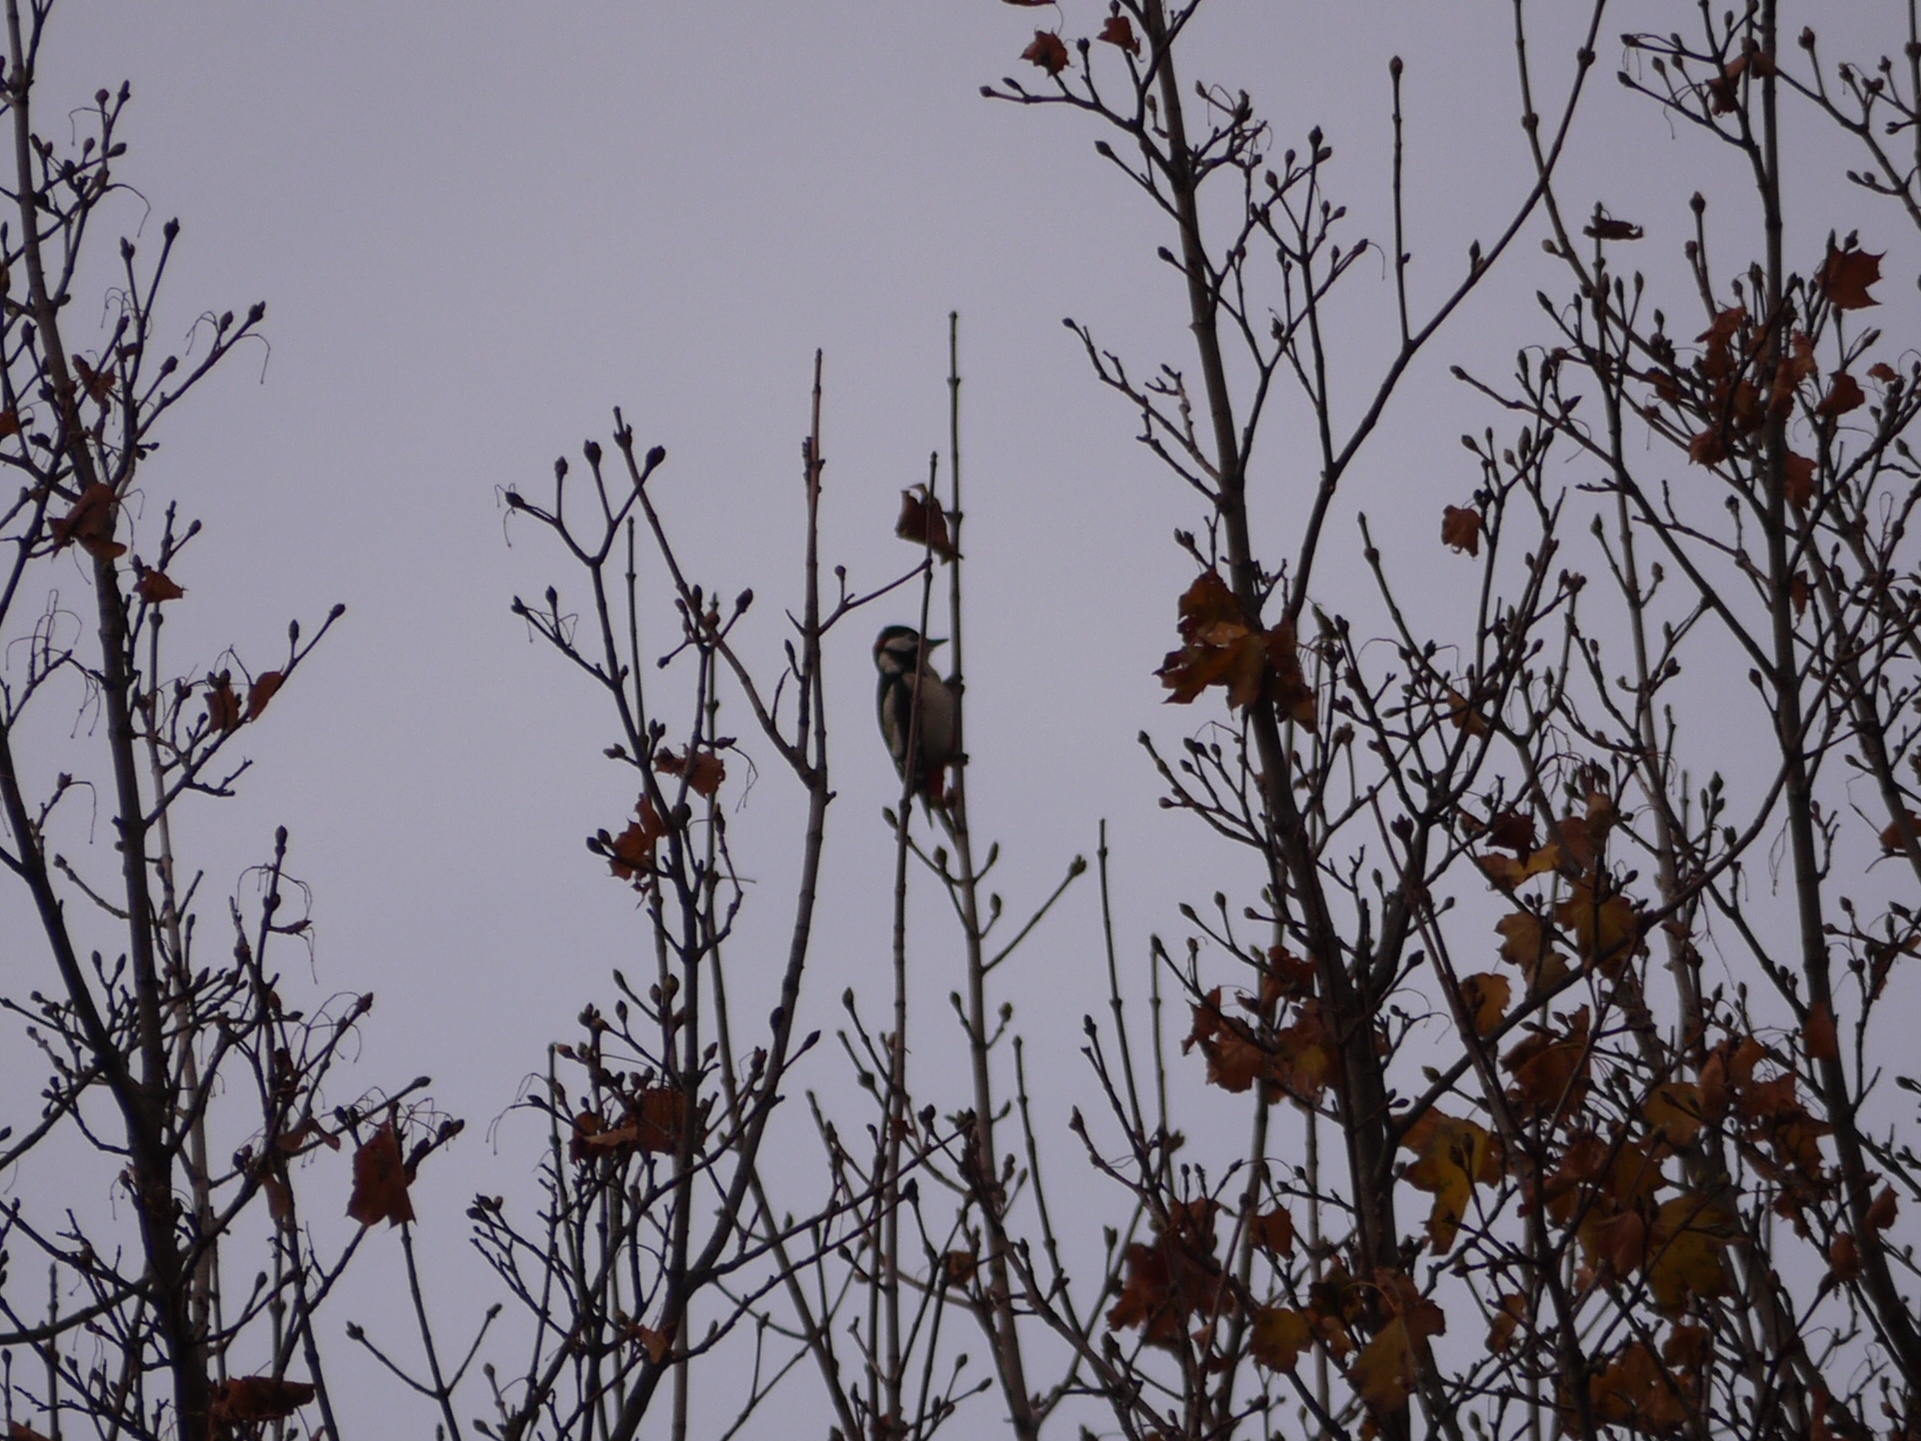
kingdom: Animalia
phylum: Chordata
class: Aves
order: Piciformes
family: Picidae
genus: Dendrocopos
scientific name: Dendrocopos major
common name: Great spotted woodpecker
